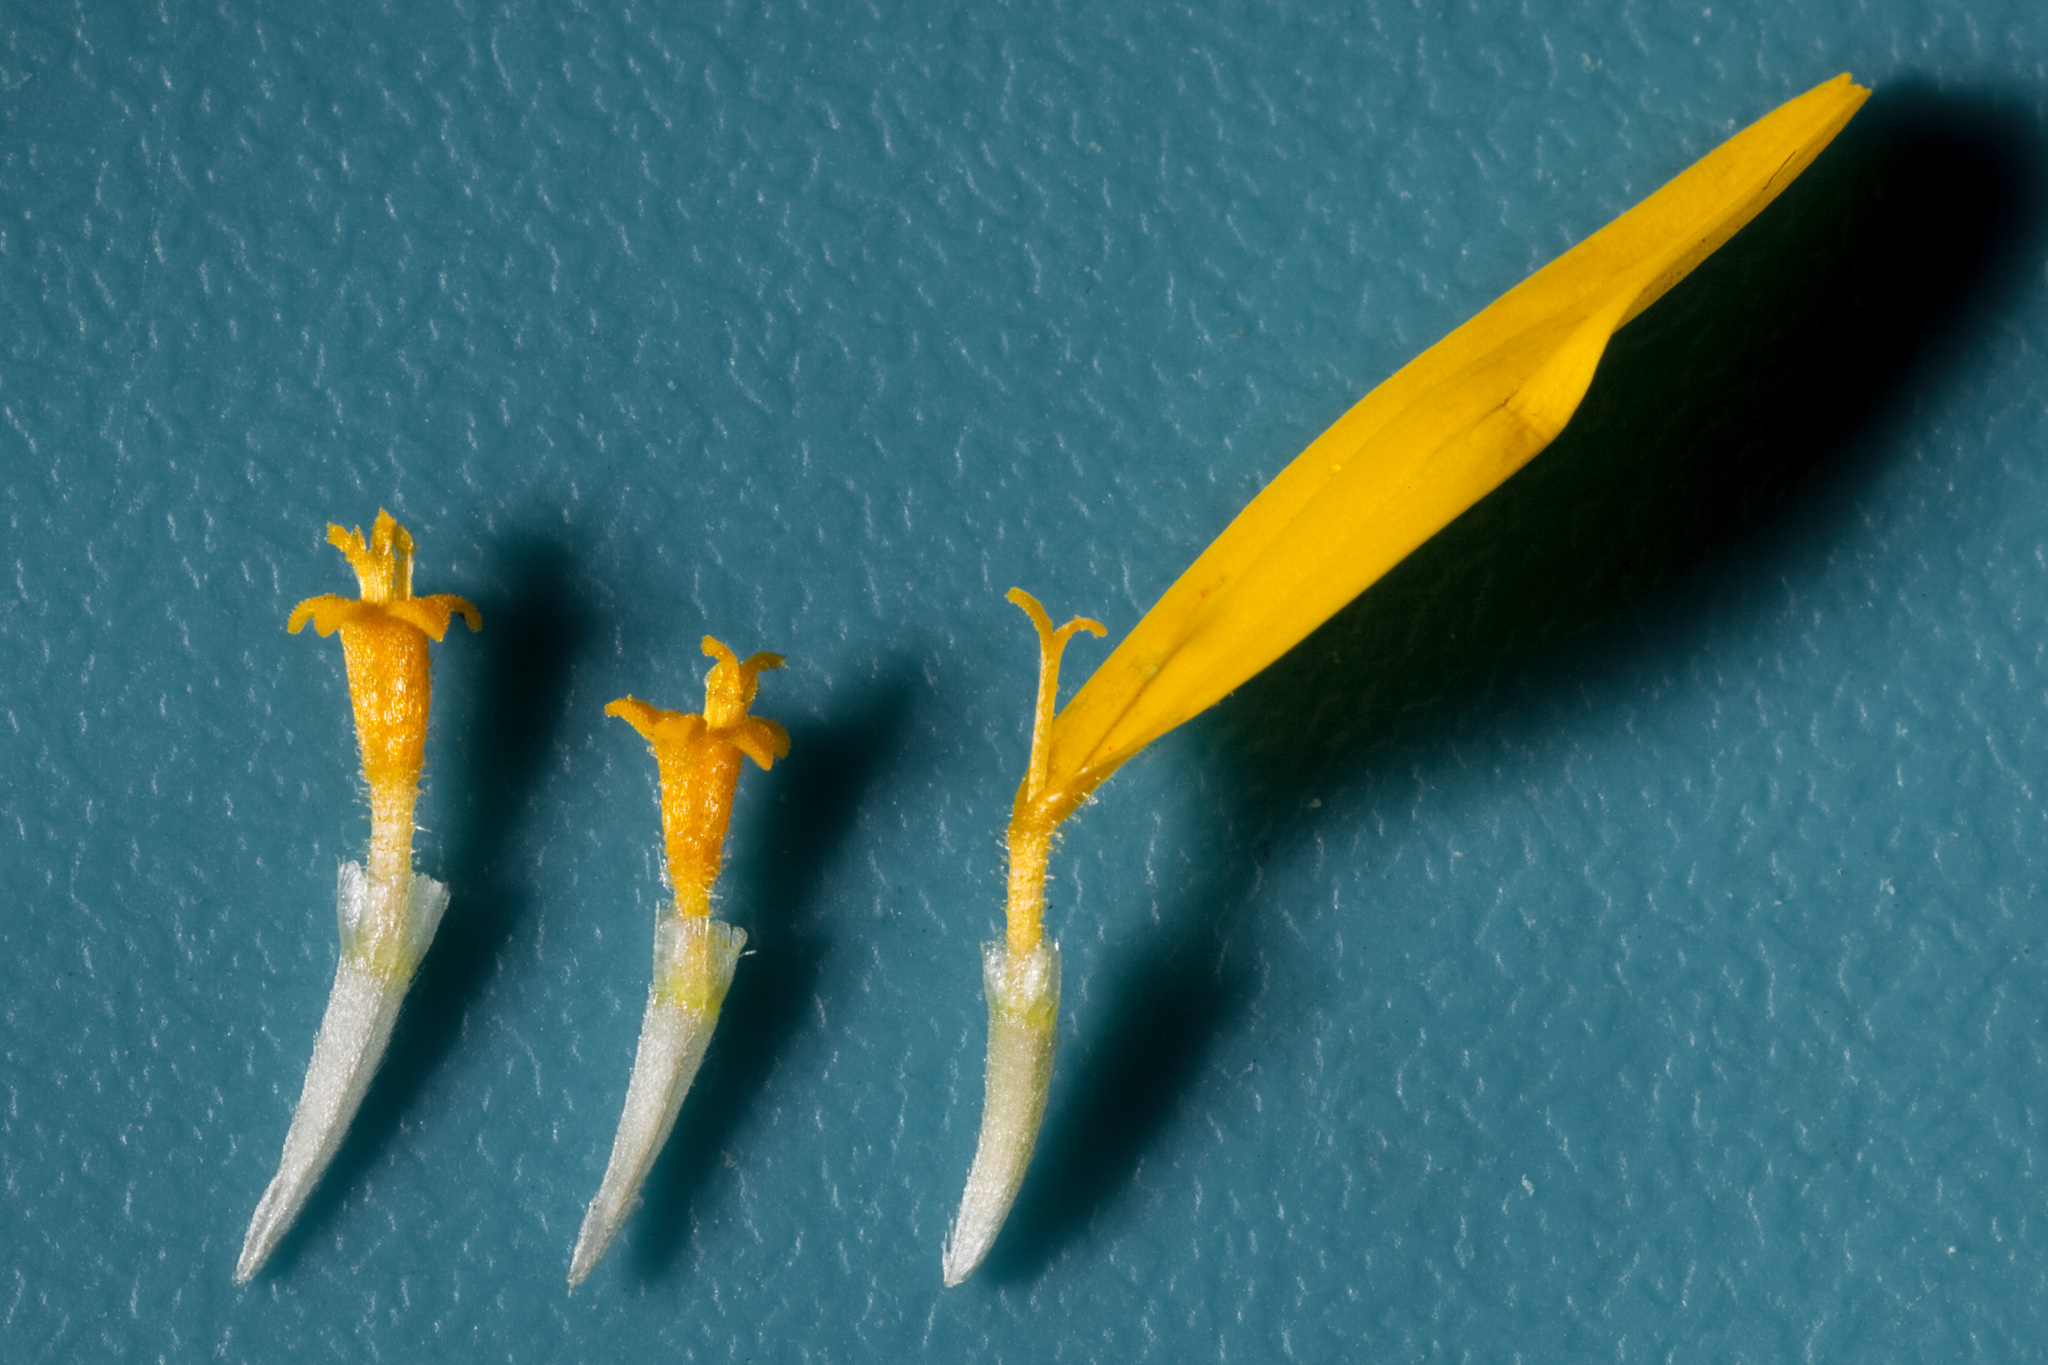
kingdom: Plantae
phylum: Tracheophyta
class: Magnoliopsida
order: Asterales
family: Asteraceae
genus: Picradeniopsis
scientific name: Picradeniopsis absinthifolia
